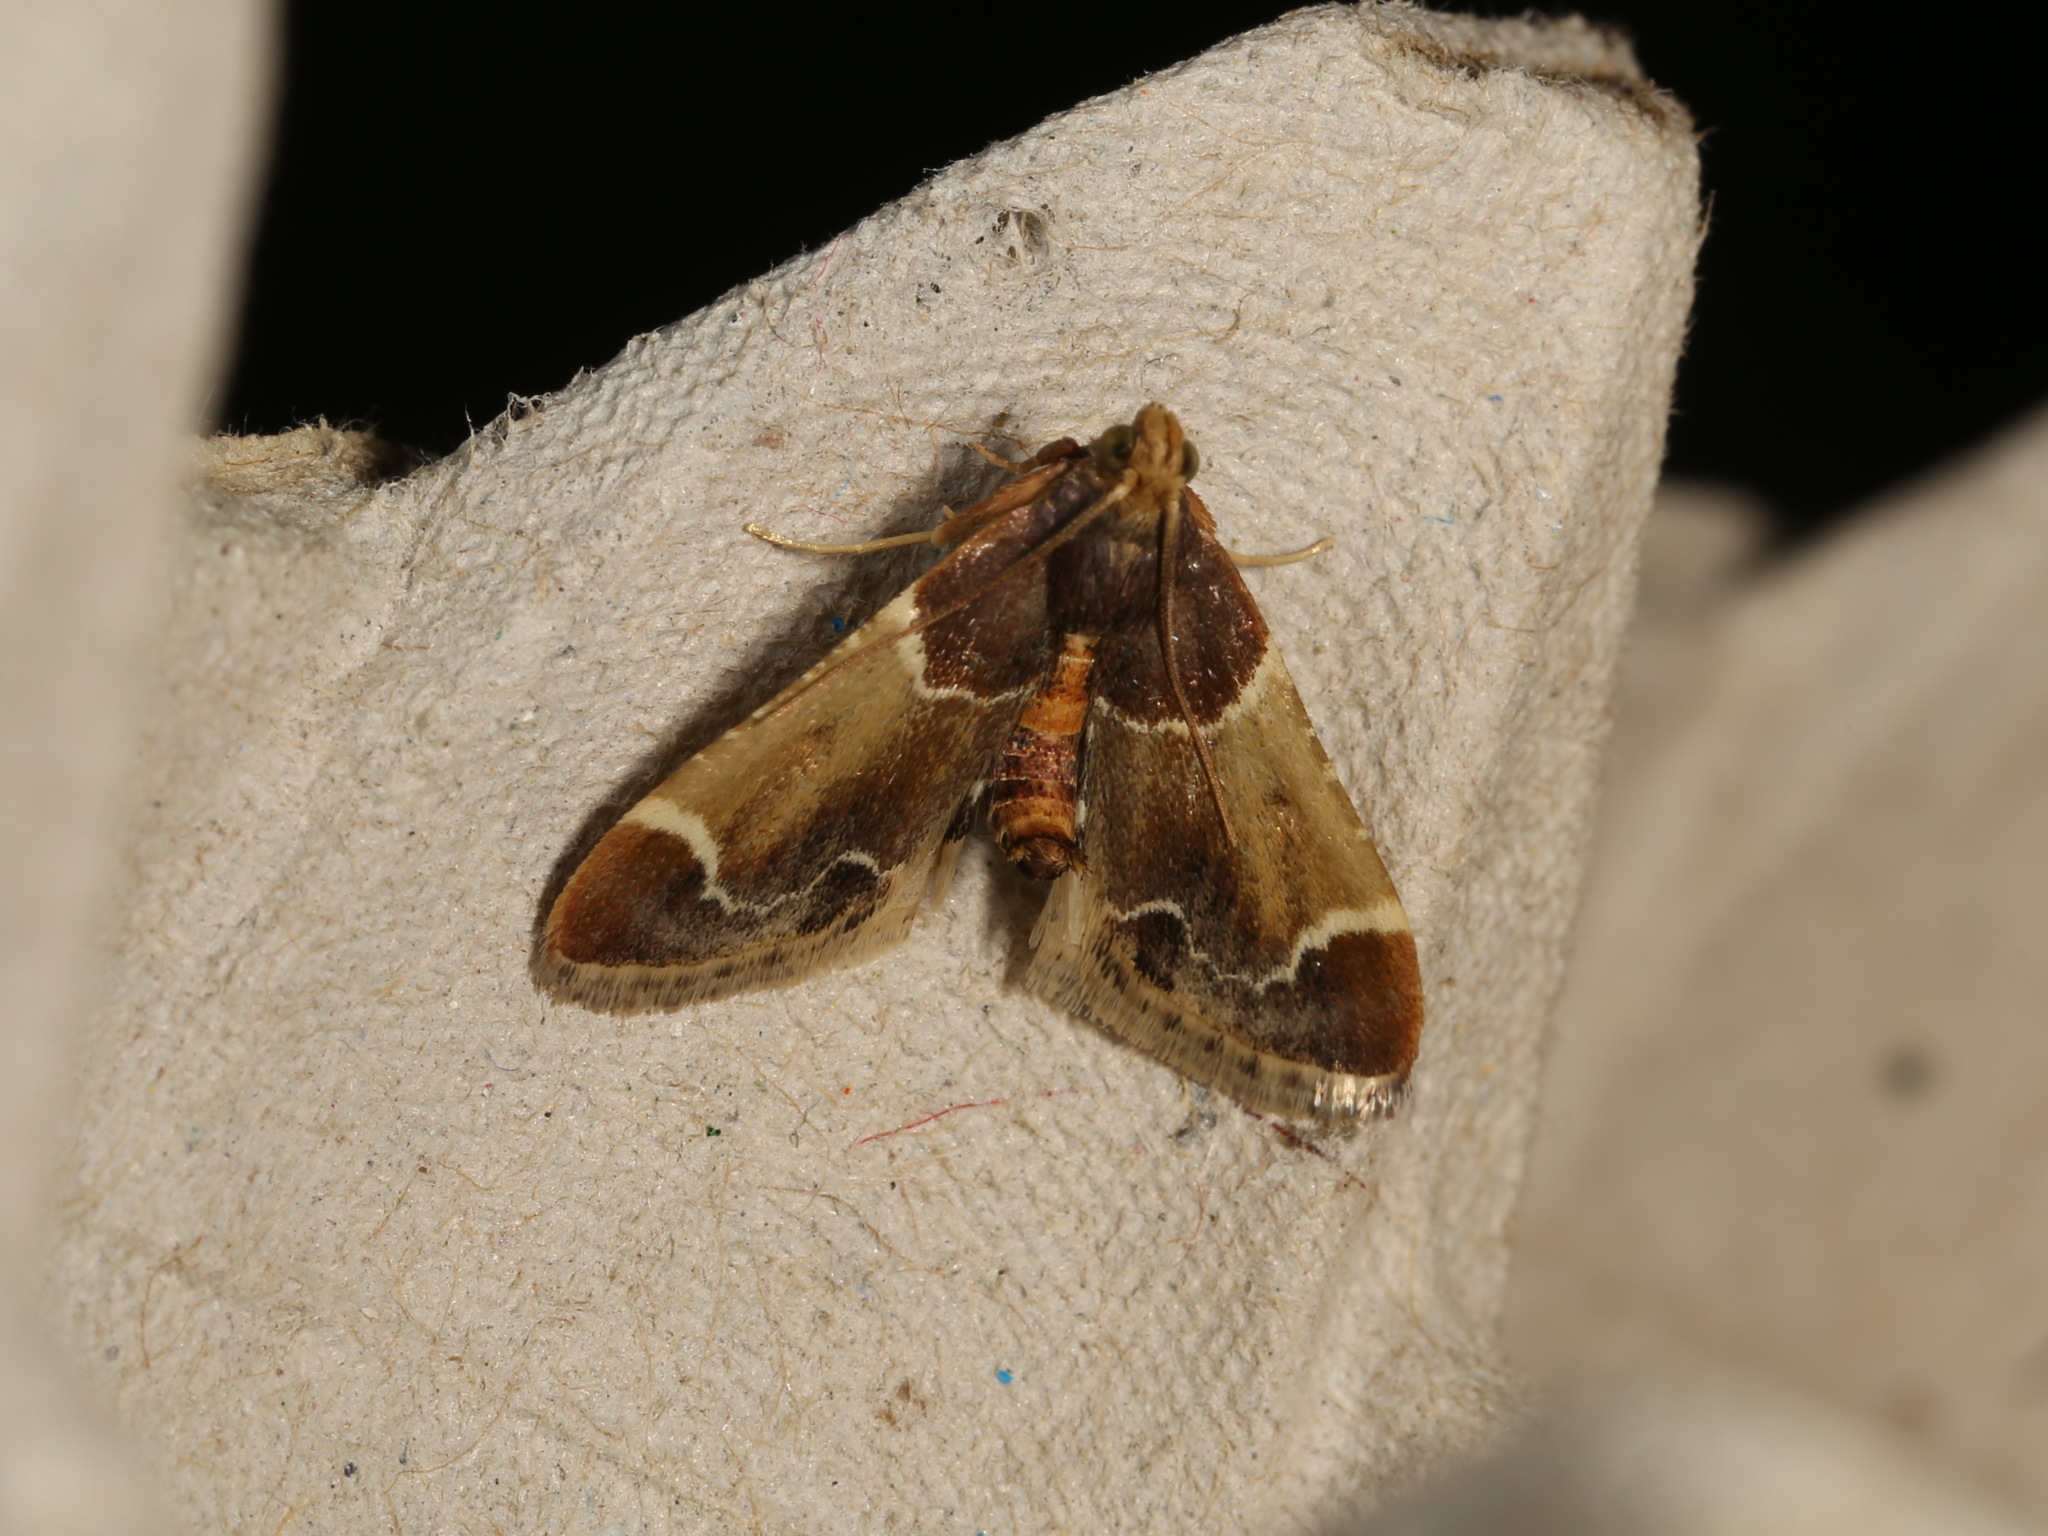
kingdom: Animalia
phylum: Arthropoda
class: Insecta
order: Lepidoptera
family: Pyralidae
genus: Pyralis
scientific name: Pyralis farinalis
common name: Meal moth
